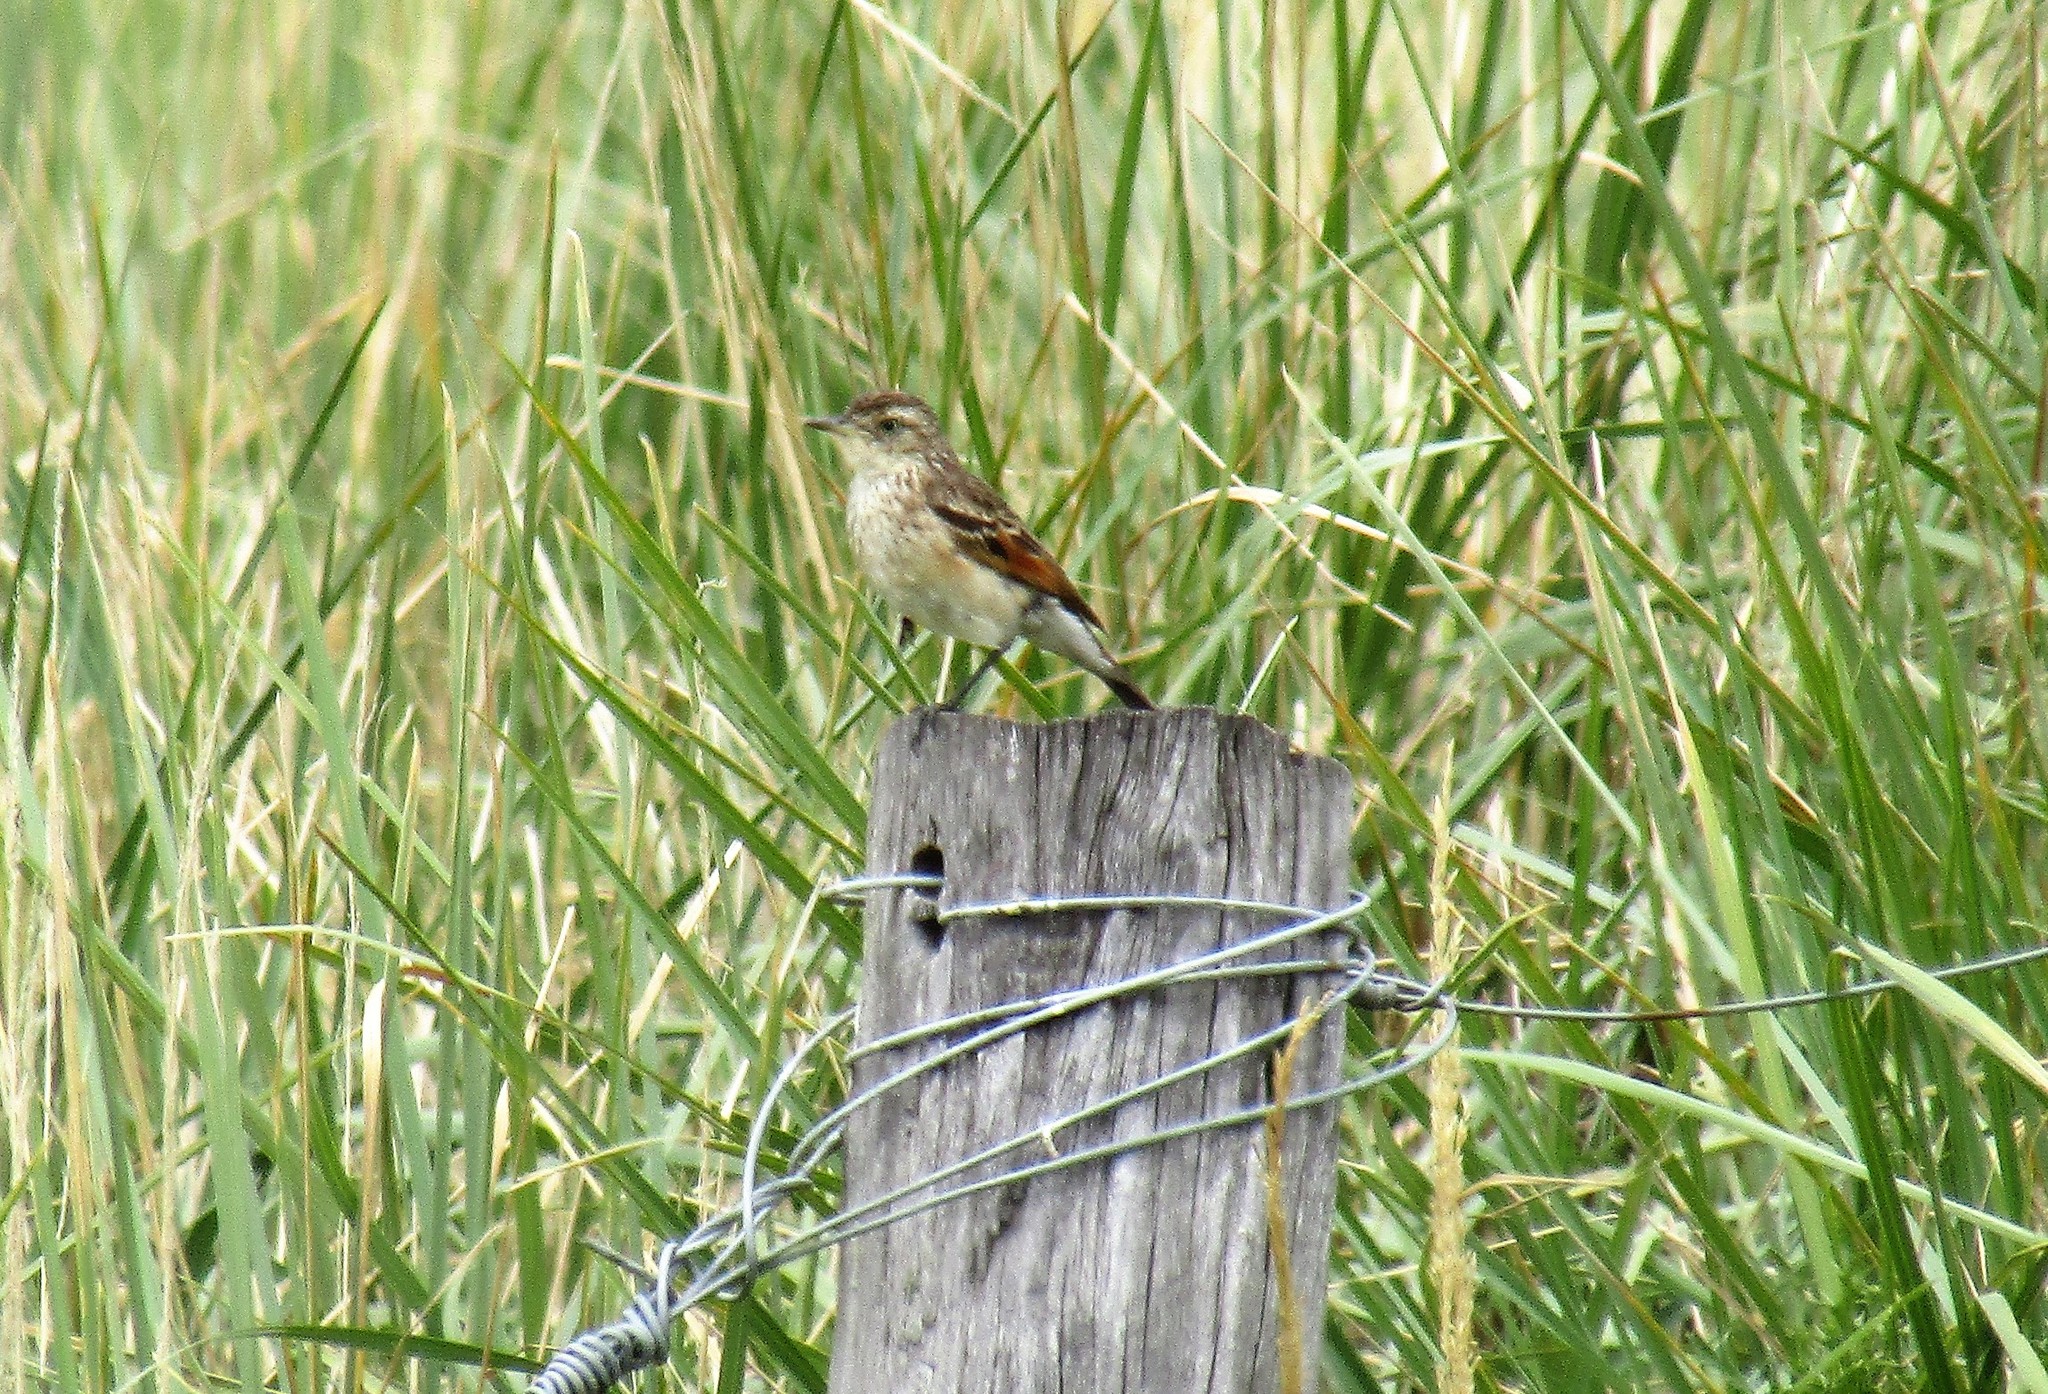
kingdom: Animalia
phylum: Chordata
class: Aves
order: Passeriformes
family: Tyrannidae
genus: Hymenops
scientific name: Hymenops perspicillatus
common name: Spectacled tyrant
